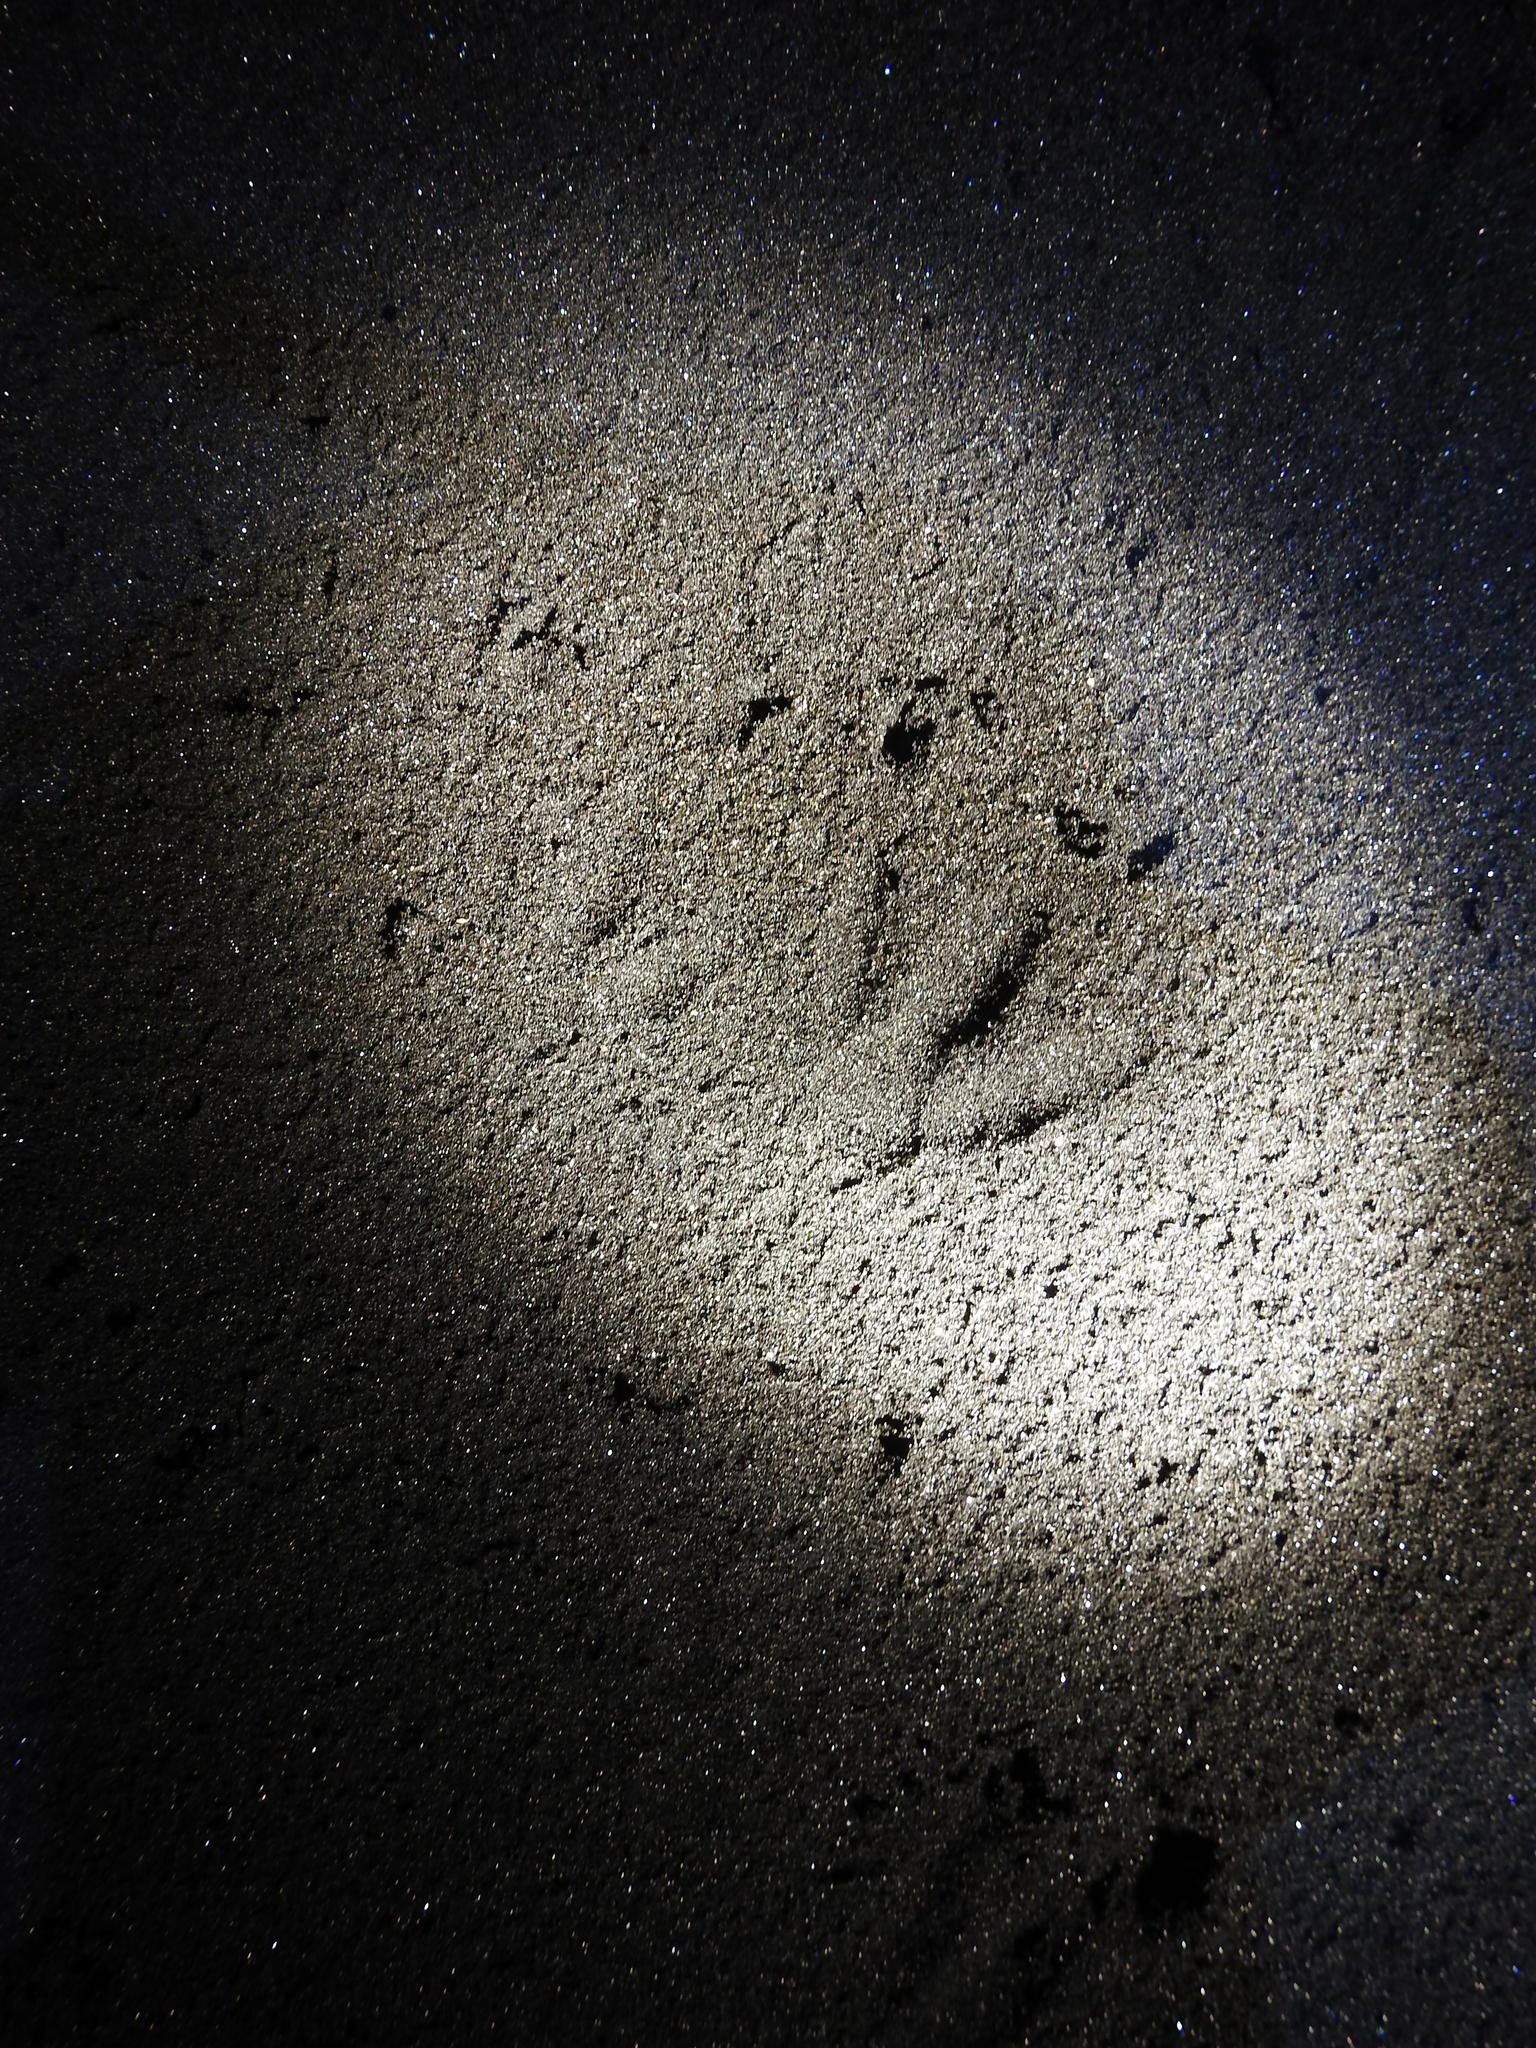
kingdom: Animalia
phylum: Chordata
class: Aves
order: Sphenisciformes
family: Spheniscidae
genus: Eudyptula
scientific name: Eudyptula minor
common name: Little penguin
